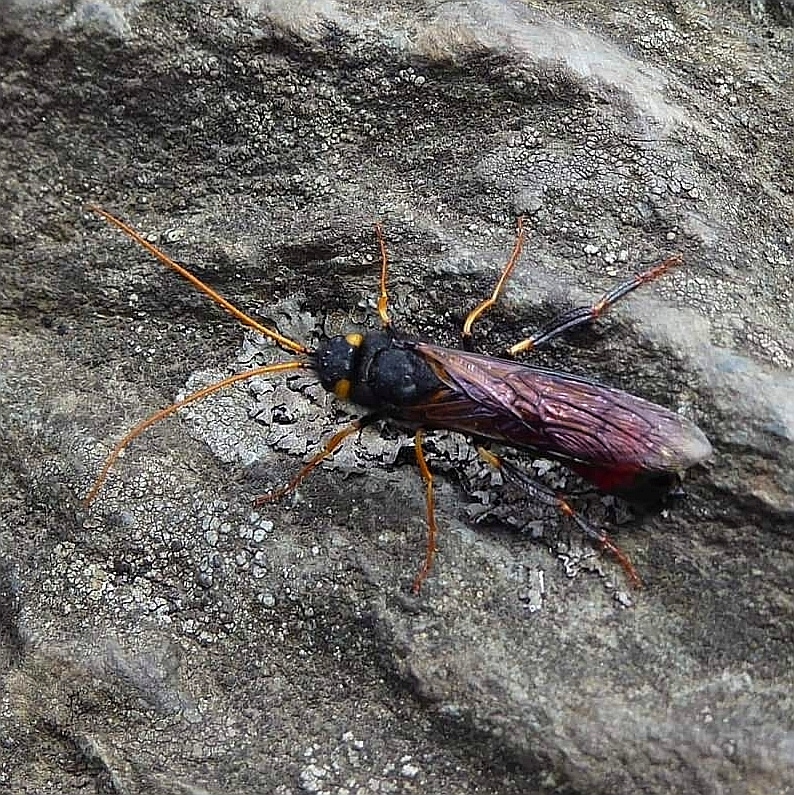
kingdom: Animalia
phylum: Arthropoda
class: Insecta
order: Hymenoptera
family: Siricidae
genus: Urocerus
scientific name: Urocerus gigas
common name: Giant woodwasp
